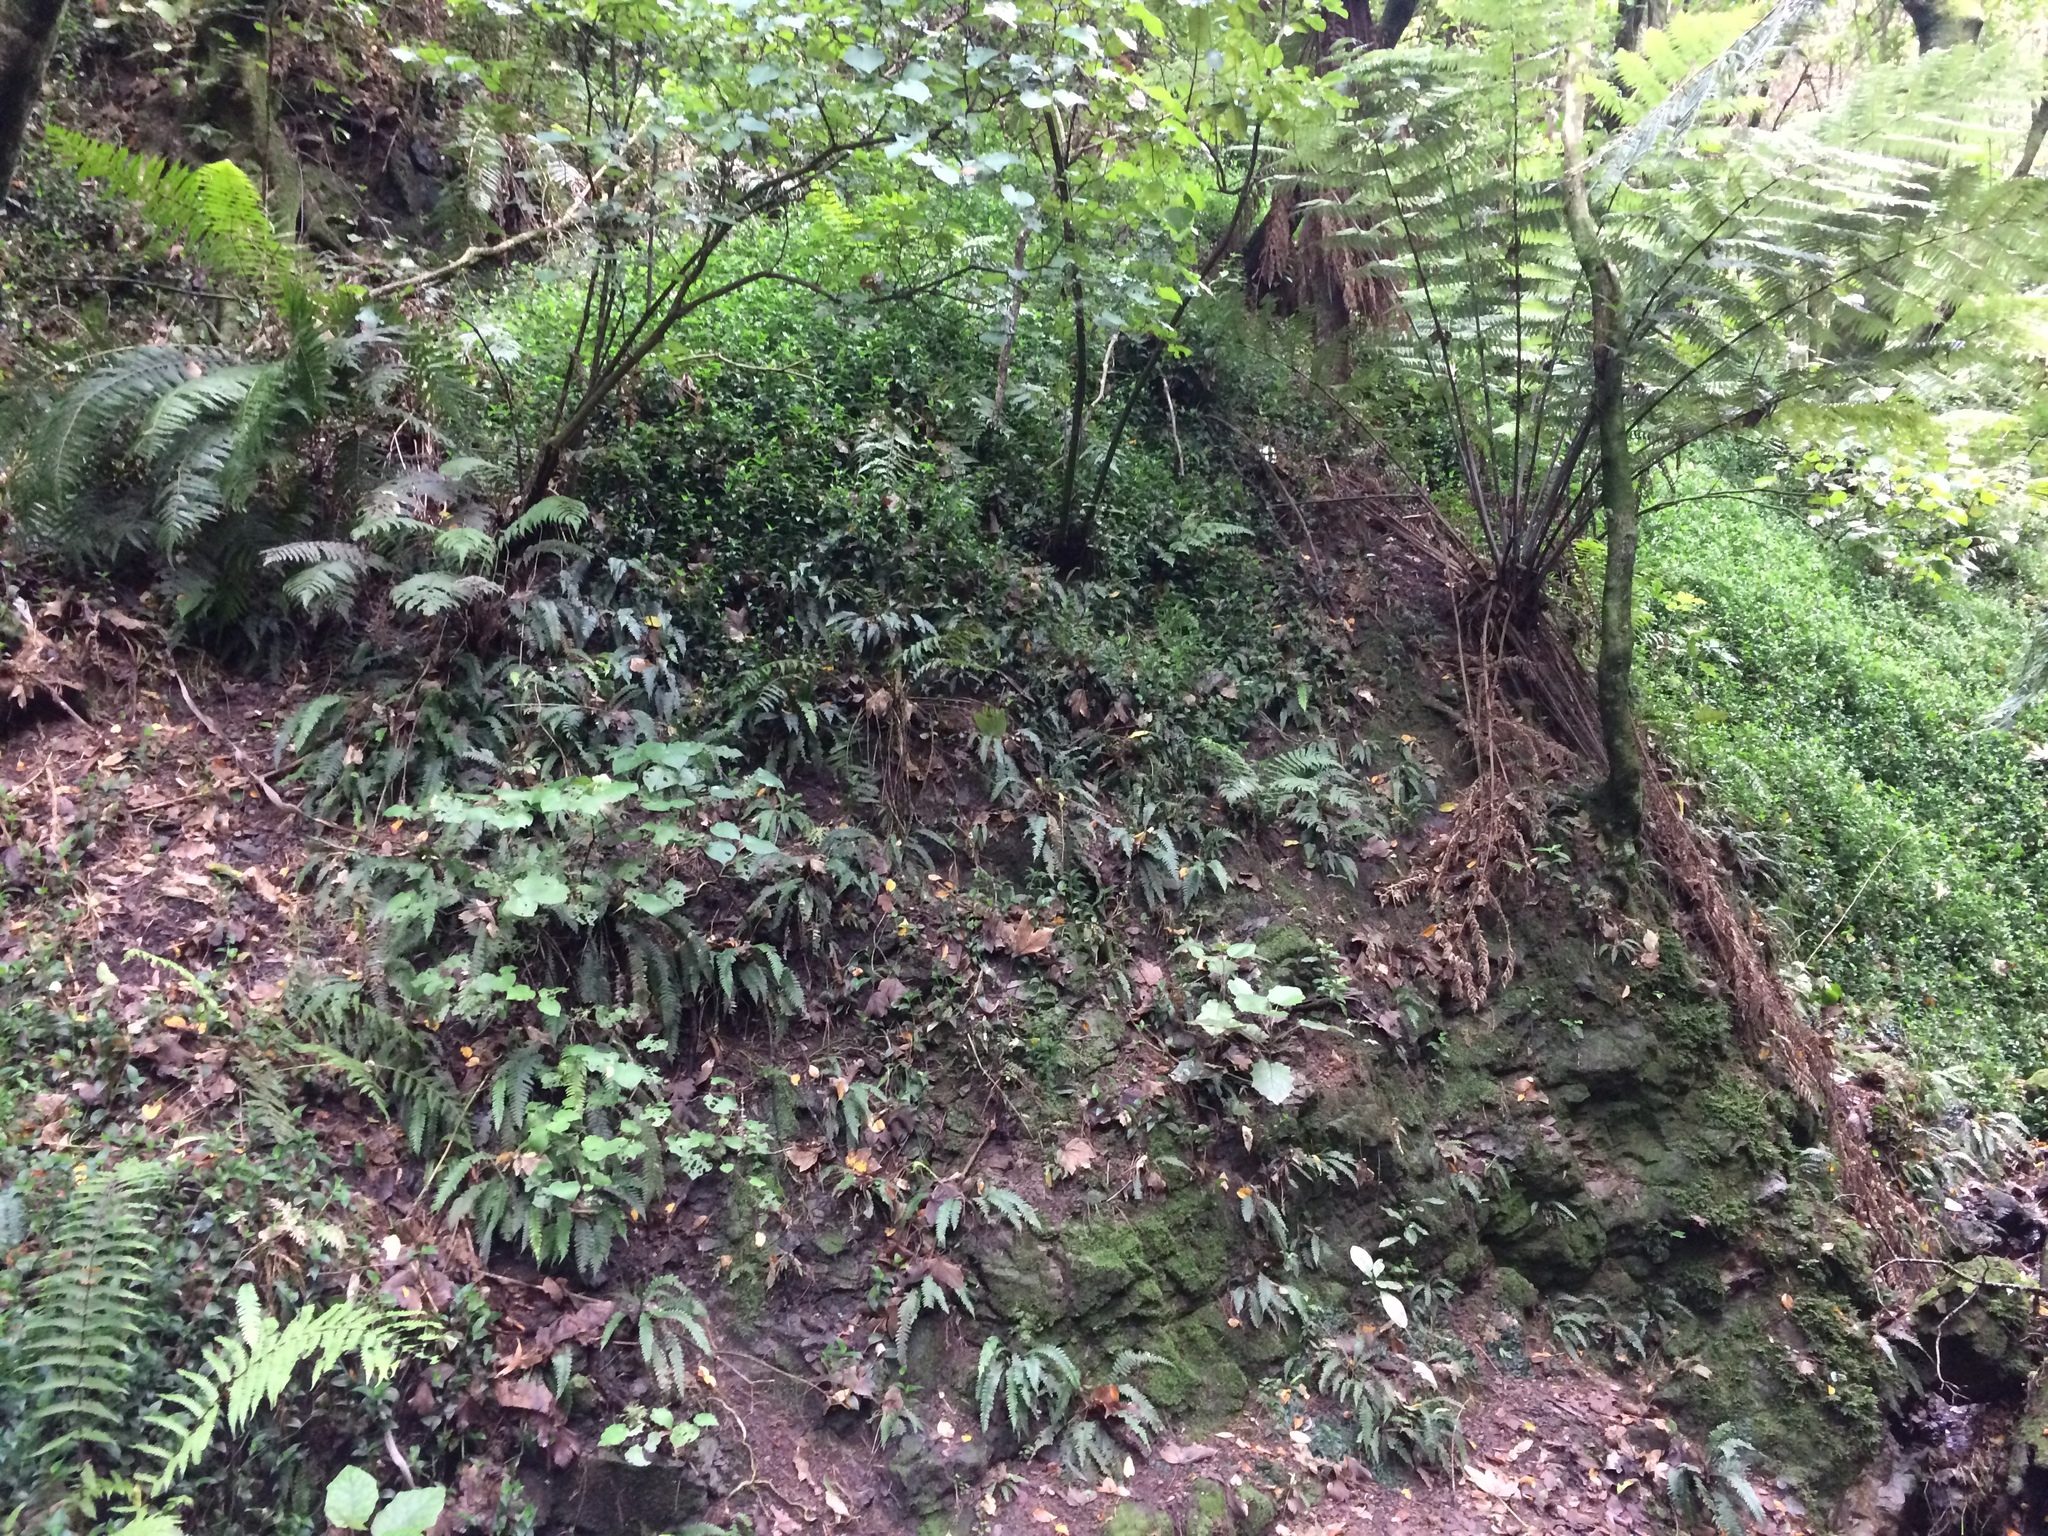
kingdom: Plantae
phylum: Tracheophyta
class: Polypodiopsida
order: Polypodiales
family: Blechnaceae
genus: Austroblechnum
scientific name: Austroblechnum lanceolatum
